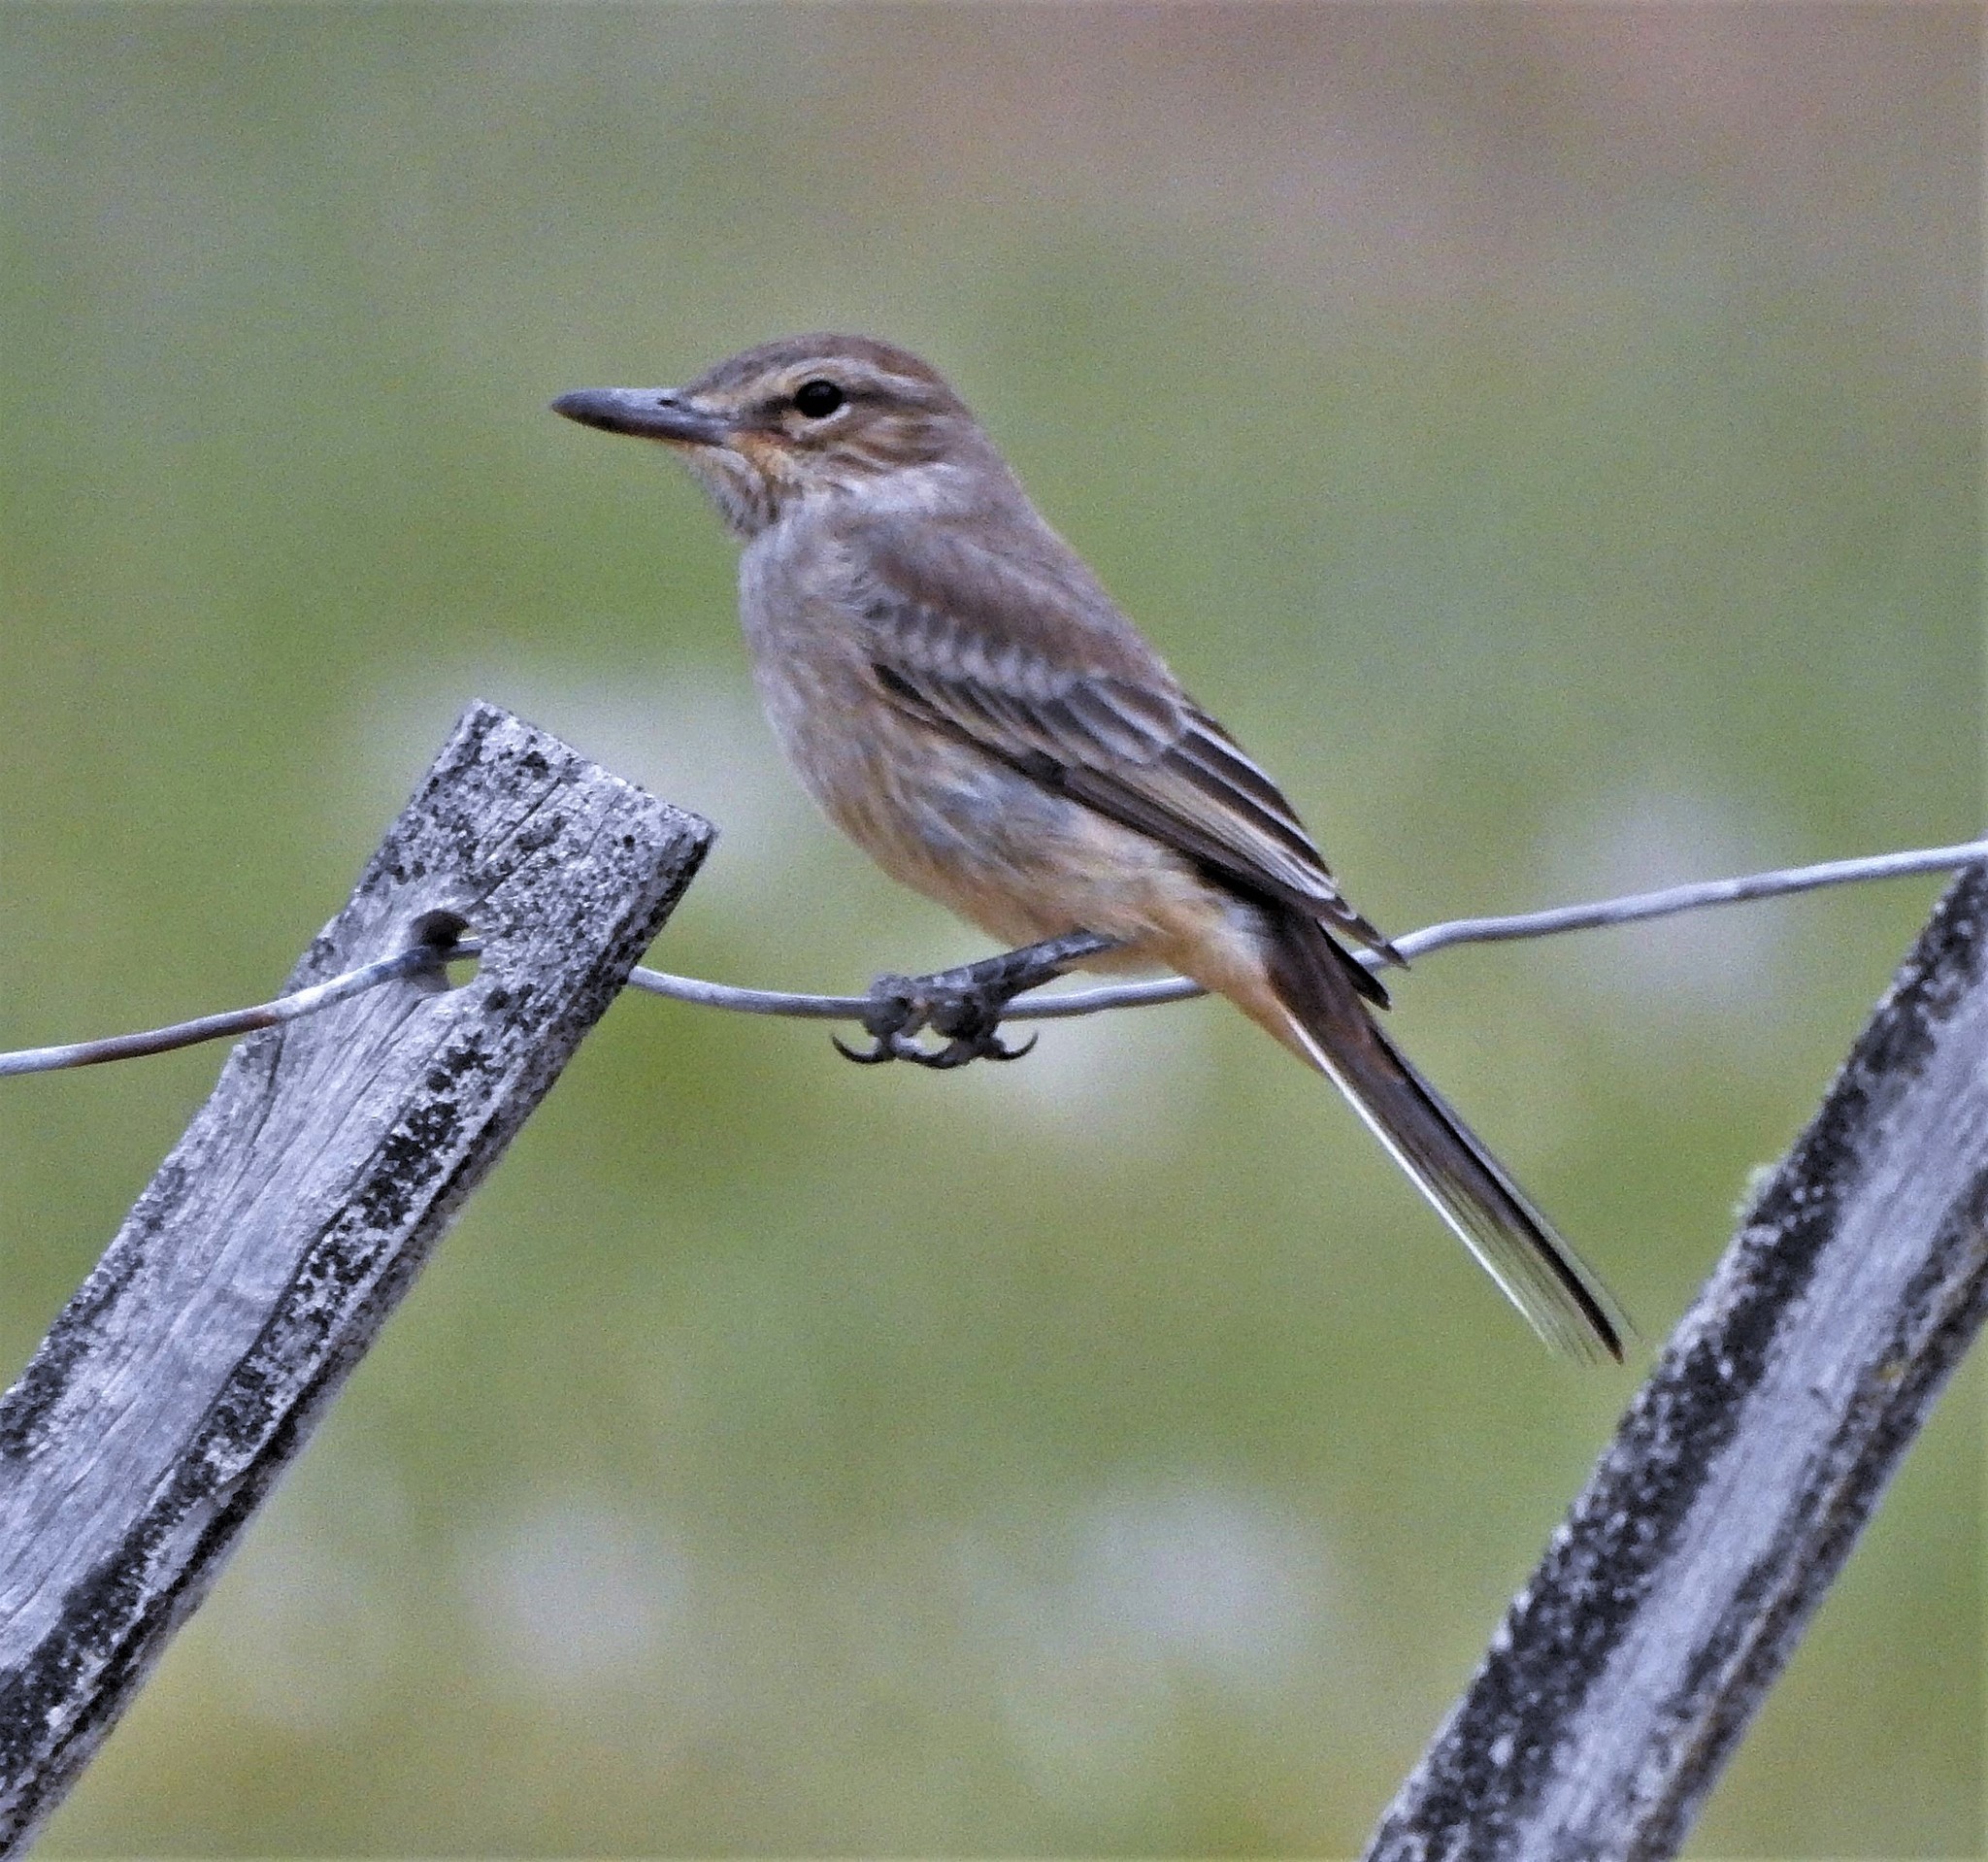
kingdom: Animalia
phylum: Chordata
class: Aves
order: Passeriformes
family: Tyrannidae
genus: Agriornis
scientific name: Agriornis micropterus
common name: Grey-bellied shrike-tyrant
